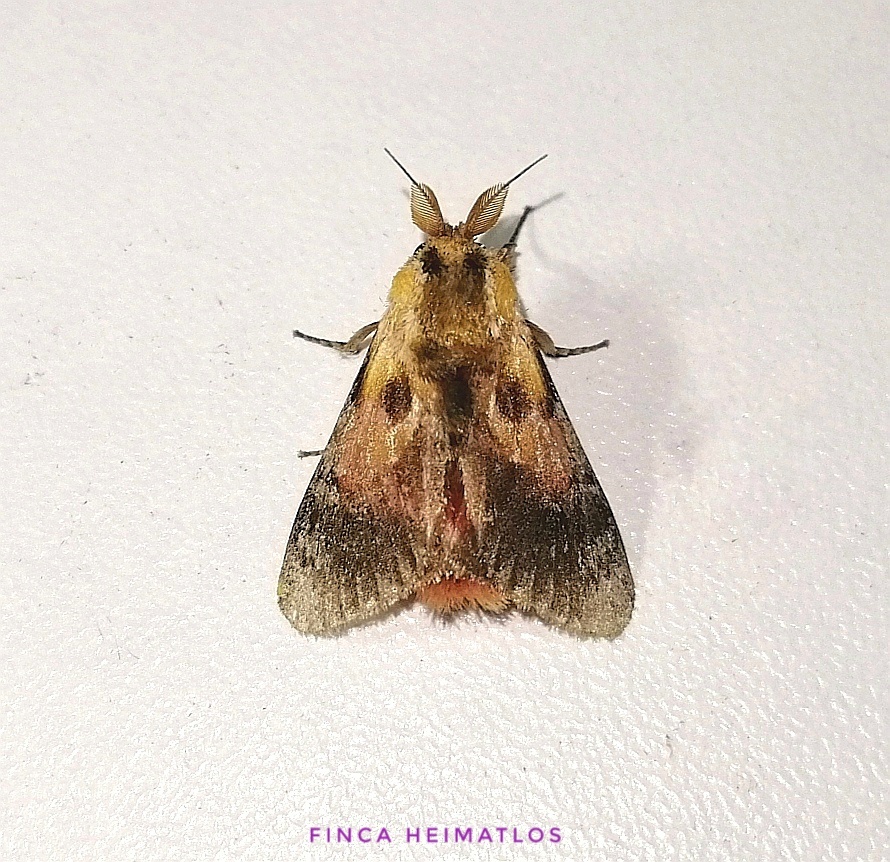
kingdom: Animalia
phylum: Arthropoda
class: Insecta
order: Lepidoptera
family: Aididae
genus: Aidos
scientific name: Aidos perfusa
